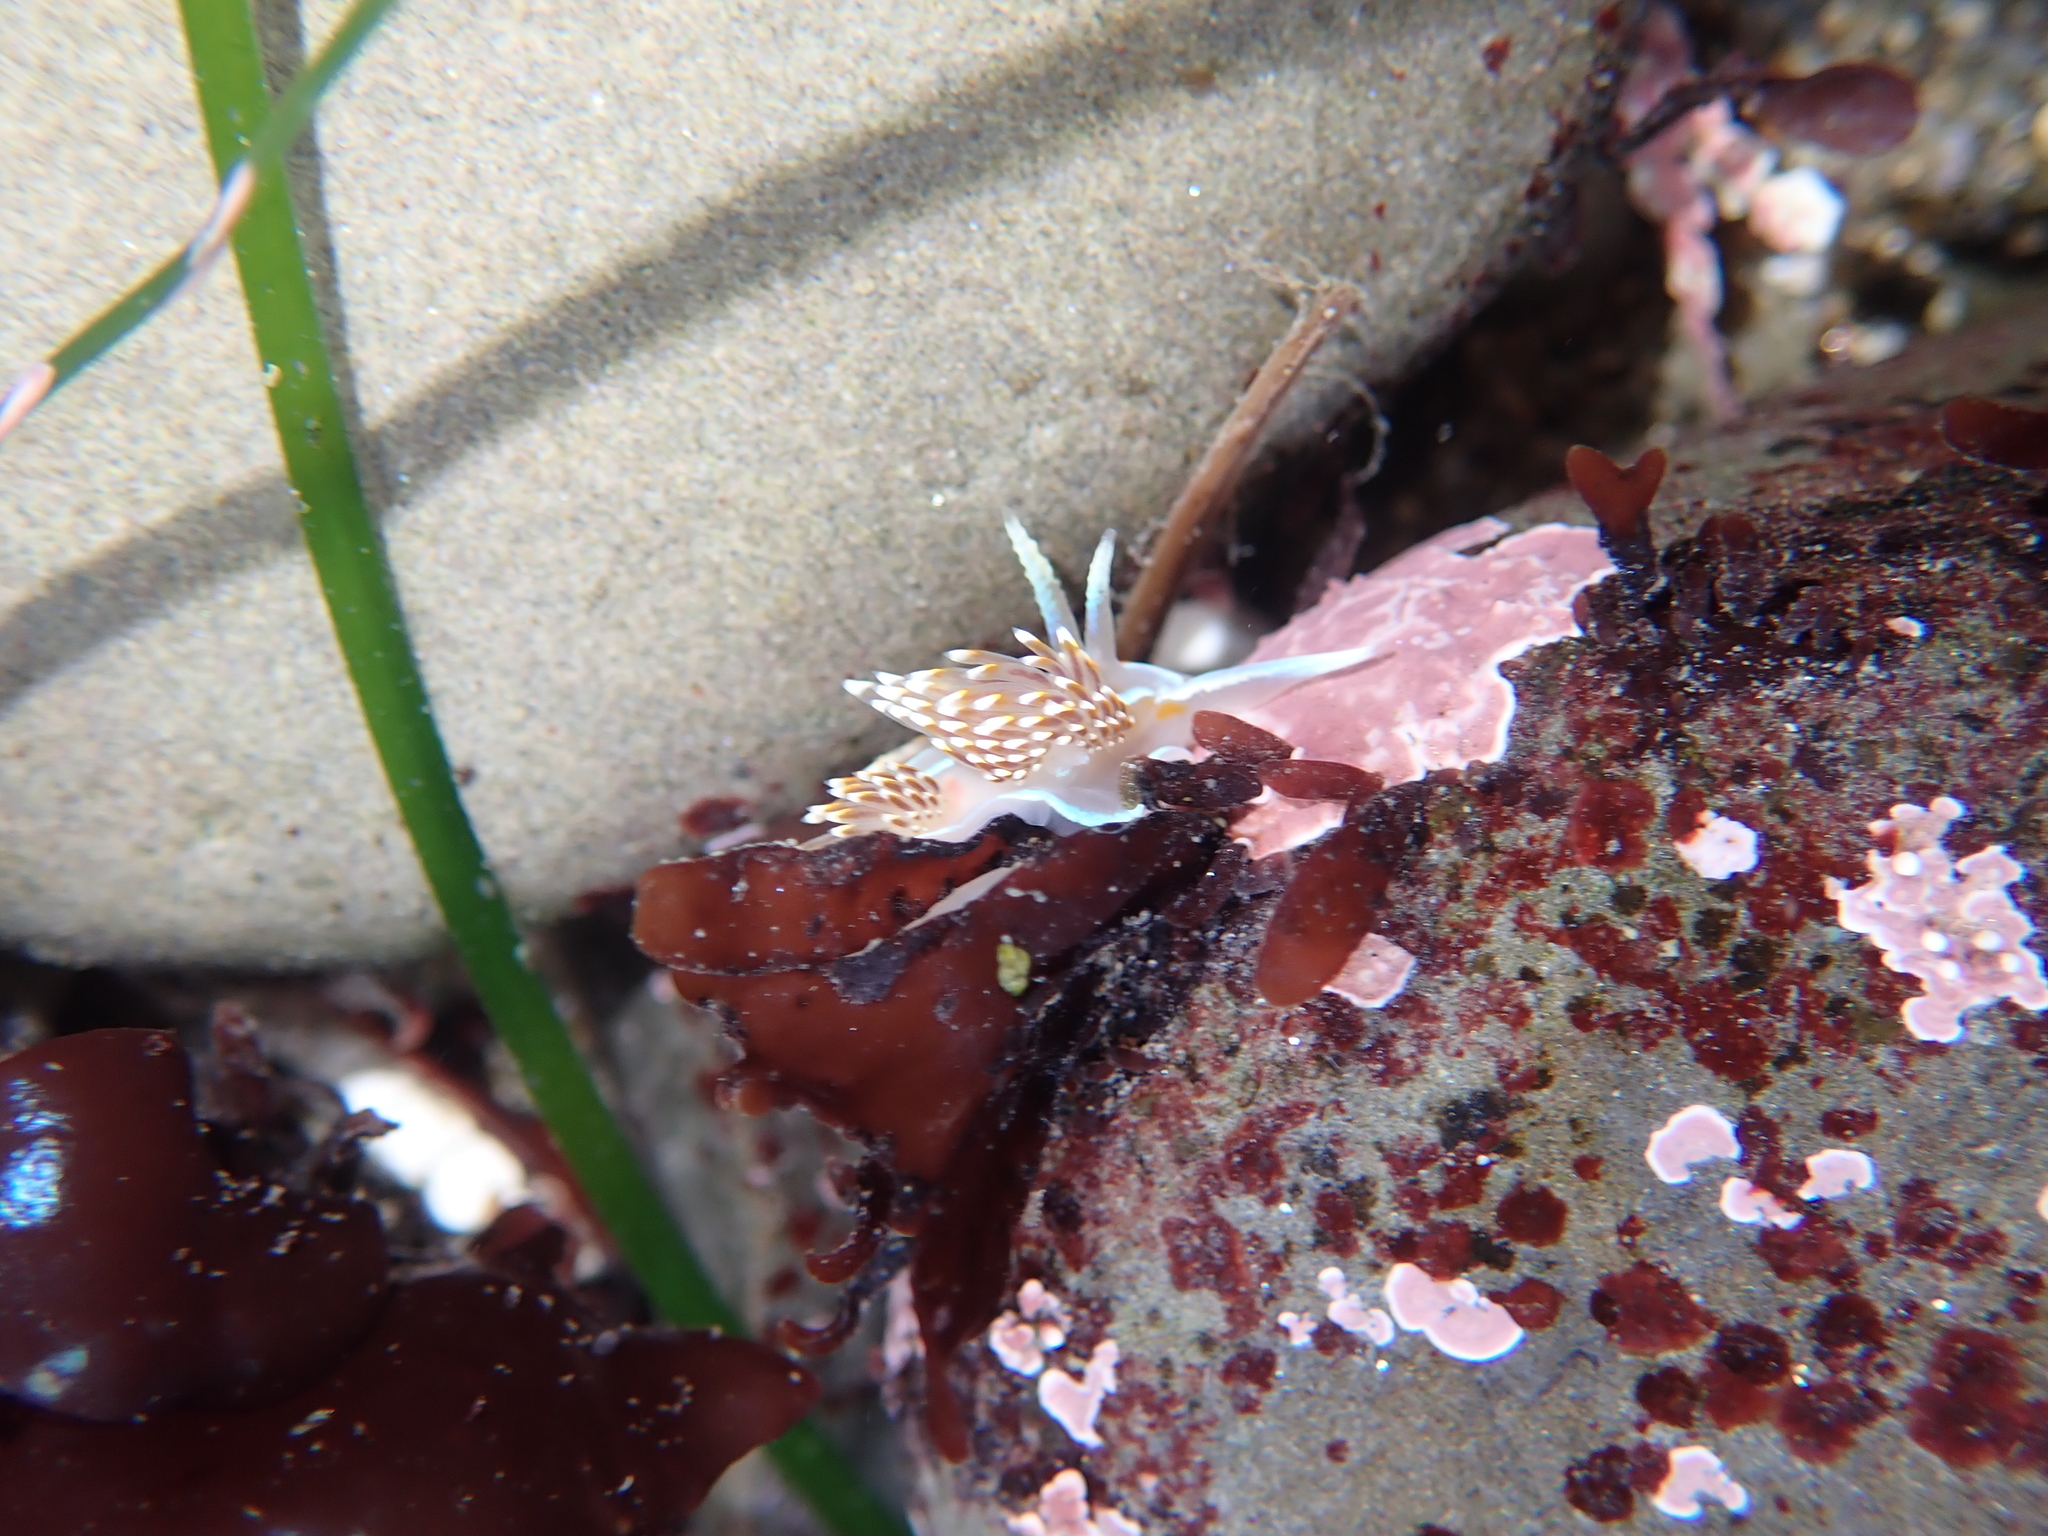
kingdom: Animalia
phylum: Mollusca
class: Gastropoda
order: Nudibranchia
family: Myrrhinidae
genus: Hermissenda
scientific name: Hermissenda opalescens
